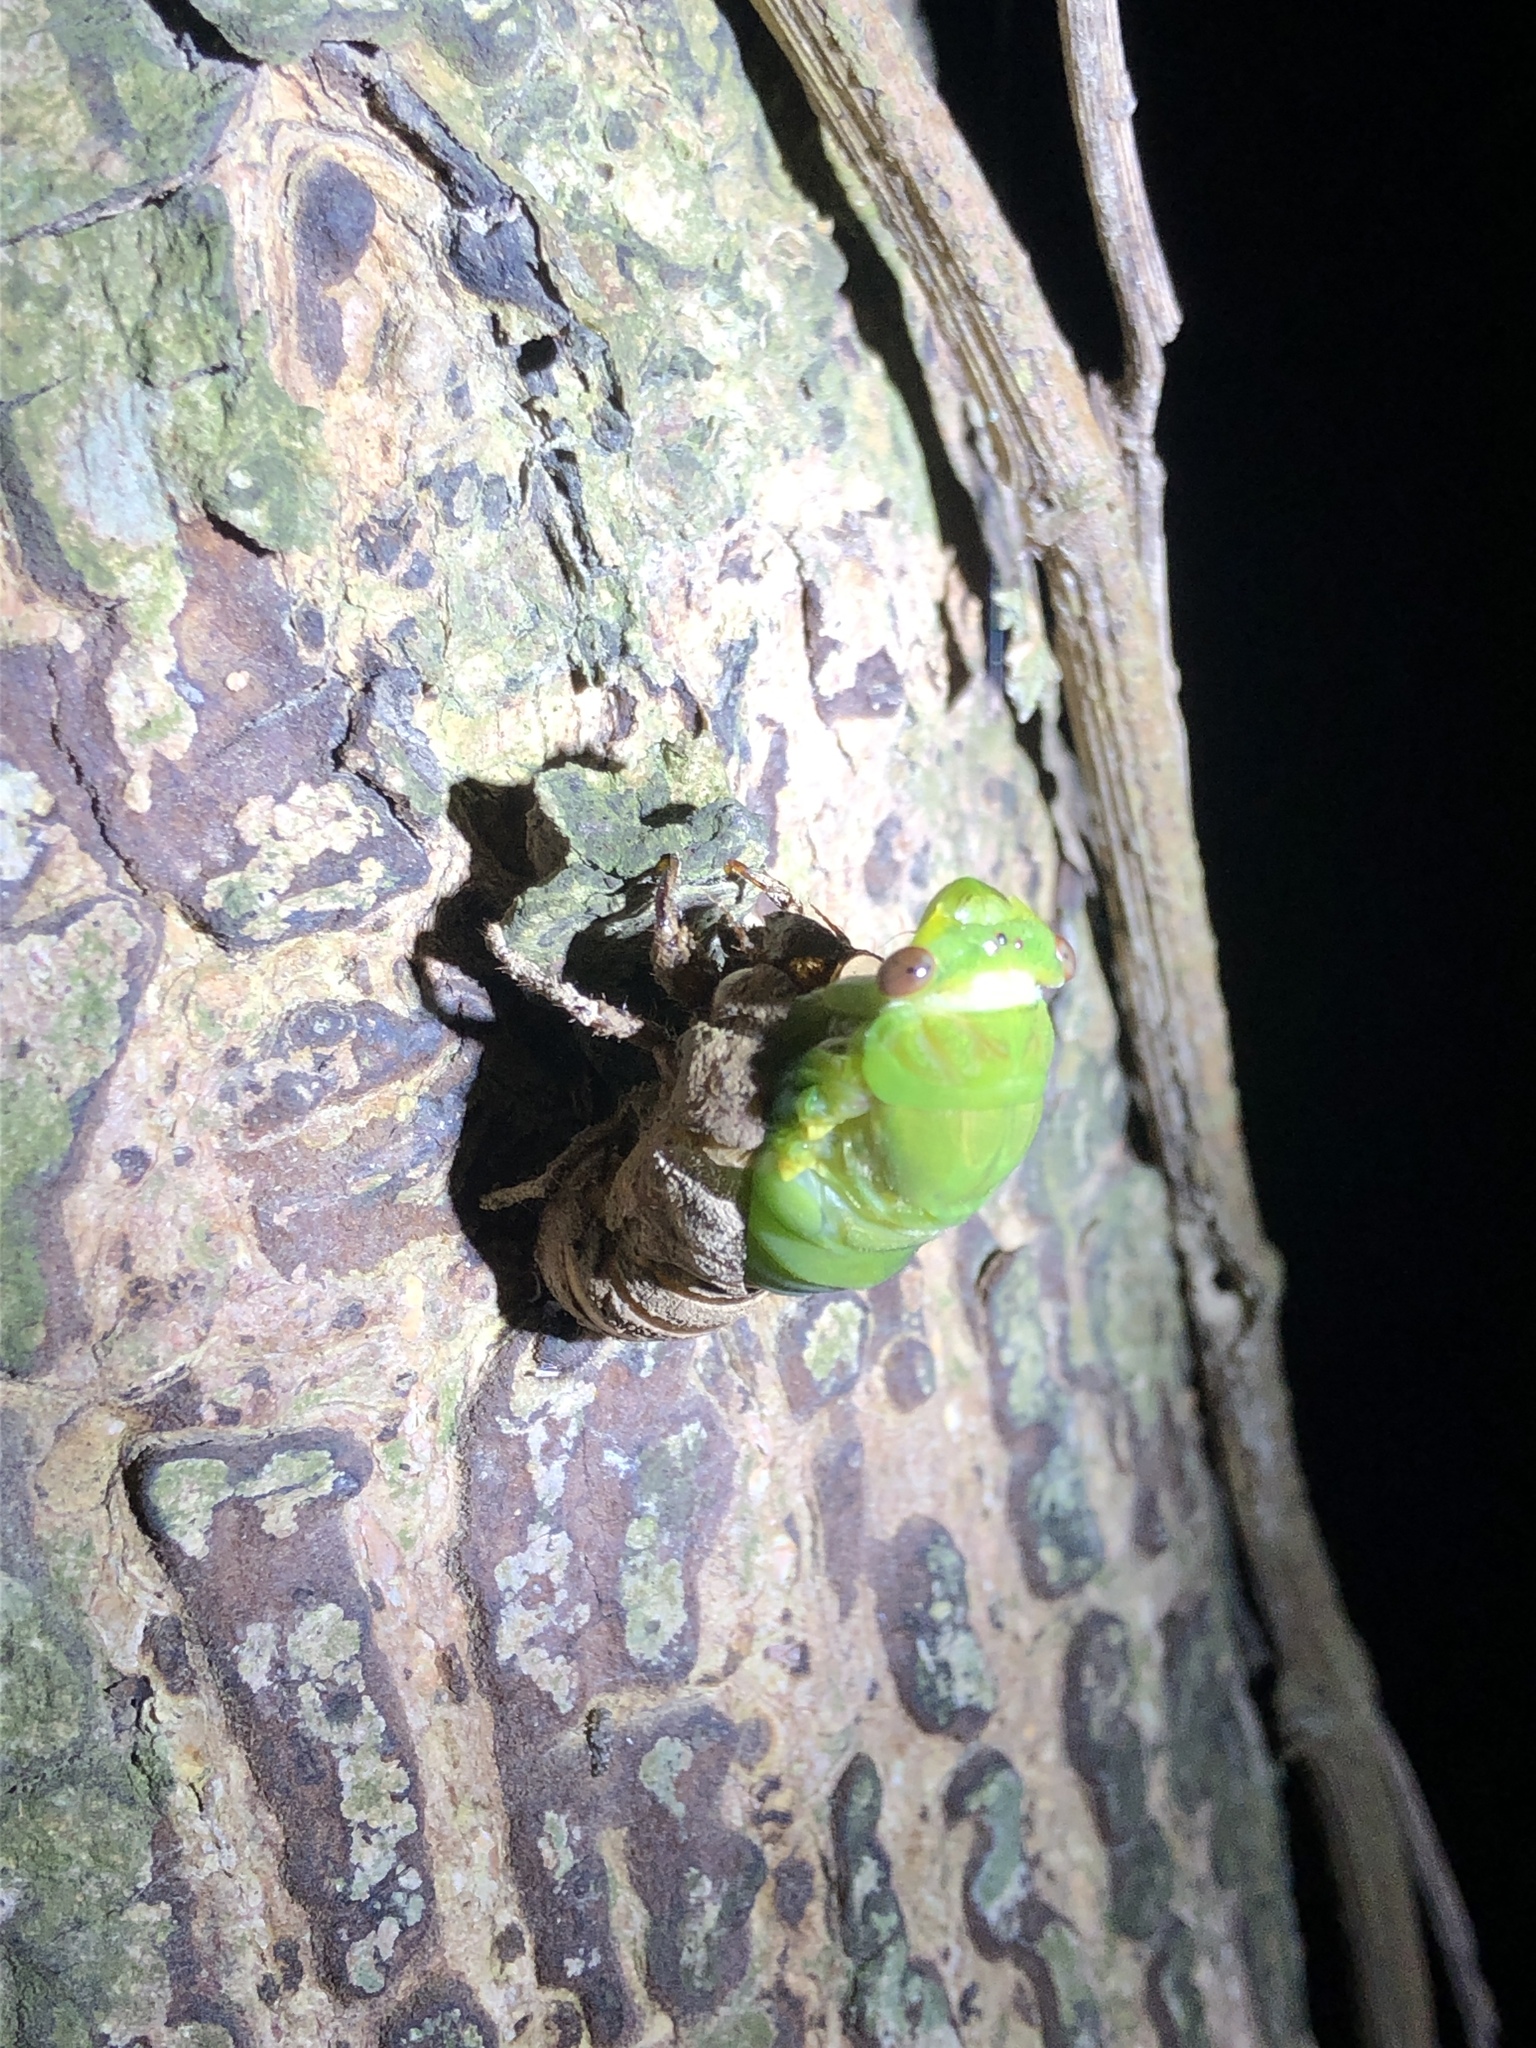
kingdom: Animalia
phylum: Arthropoda
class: Insecta
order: Hemiptera
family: Cicadidae
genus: Chremistica
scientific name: Chremistica ochracea
